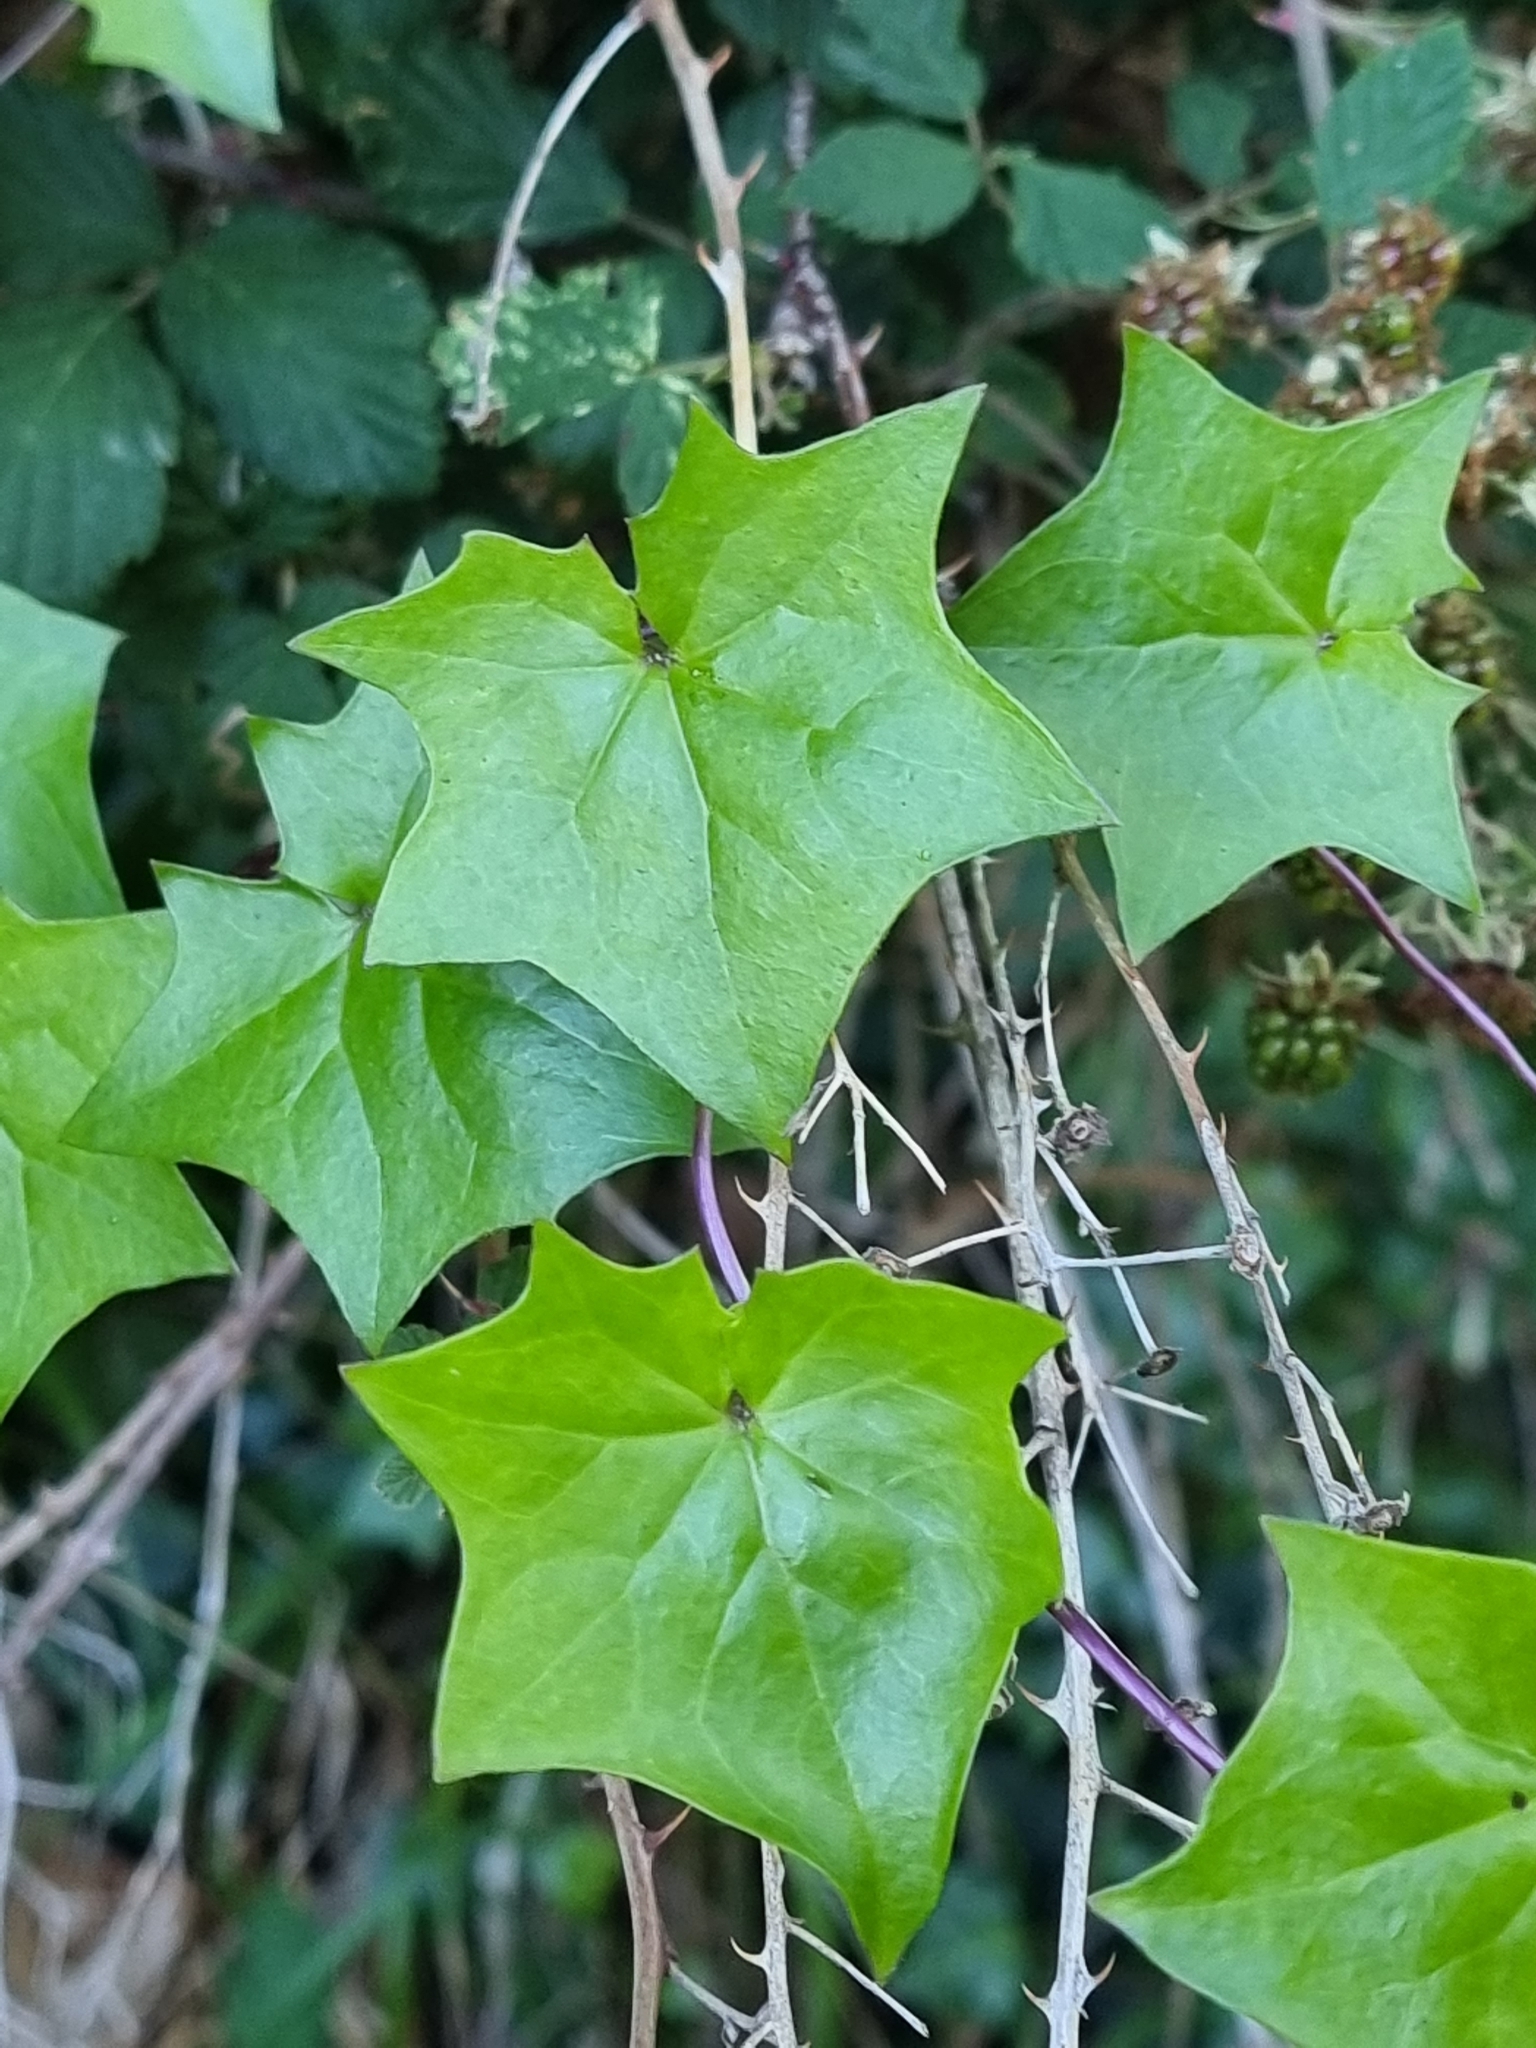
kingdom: Plantae
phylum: Tracheophyta
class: Magnoliopsida
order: Asterales
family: Asteraceae
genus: Delairea
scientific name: Delairea odorata
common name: Cape-ivy
